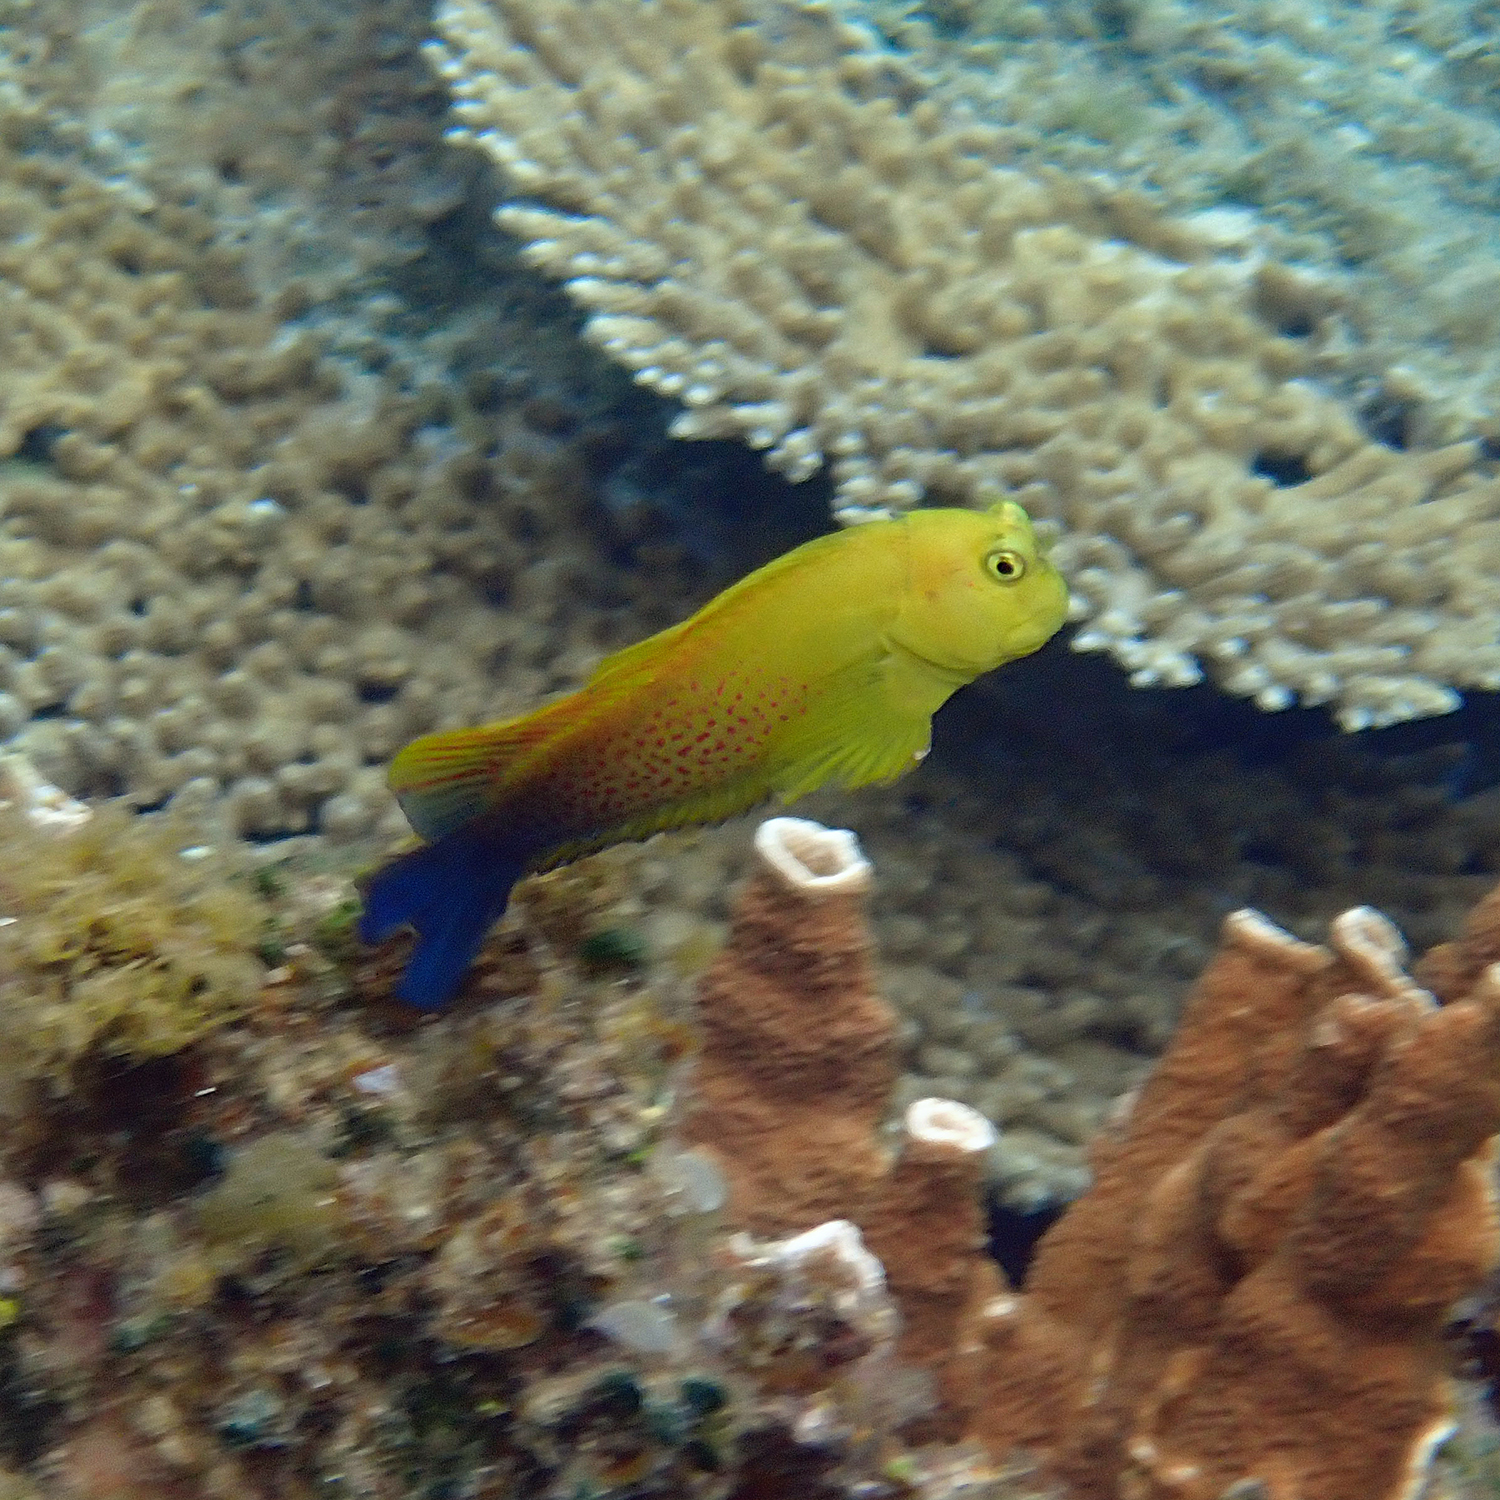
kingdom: Animalia
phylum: Chordata
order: Perciformes
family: Blenniidae
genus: Cirripectes
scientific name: Cirripectes chelomatus
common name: Lady musgrave blenny
